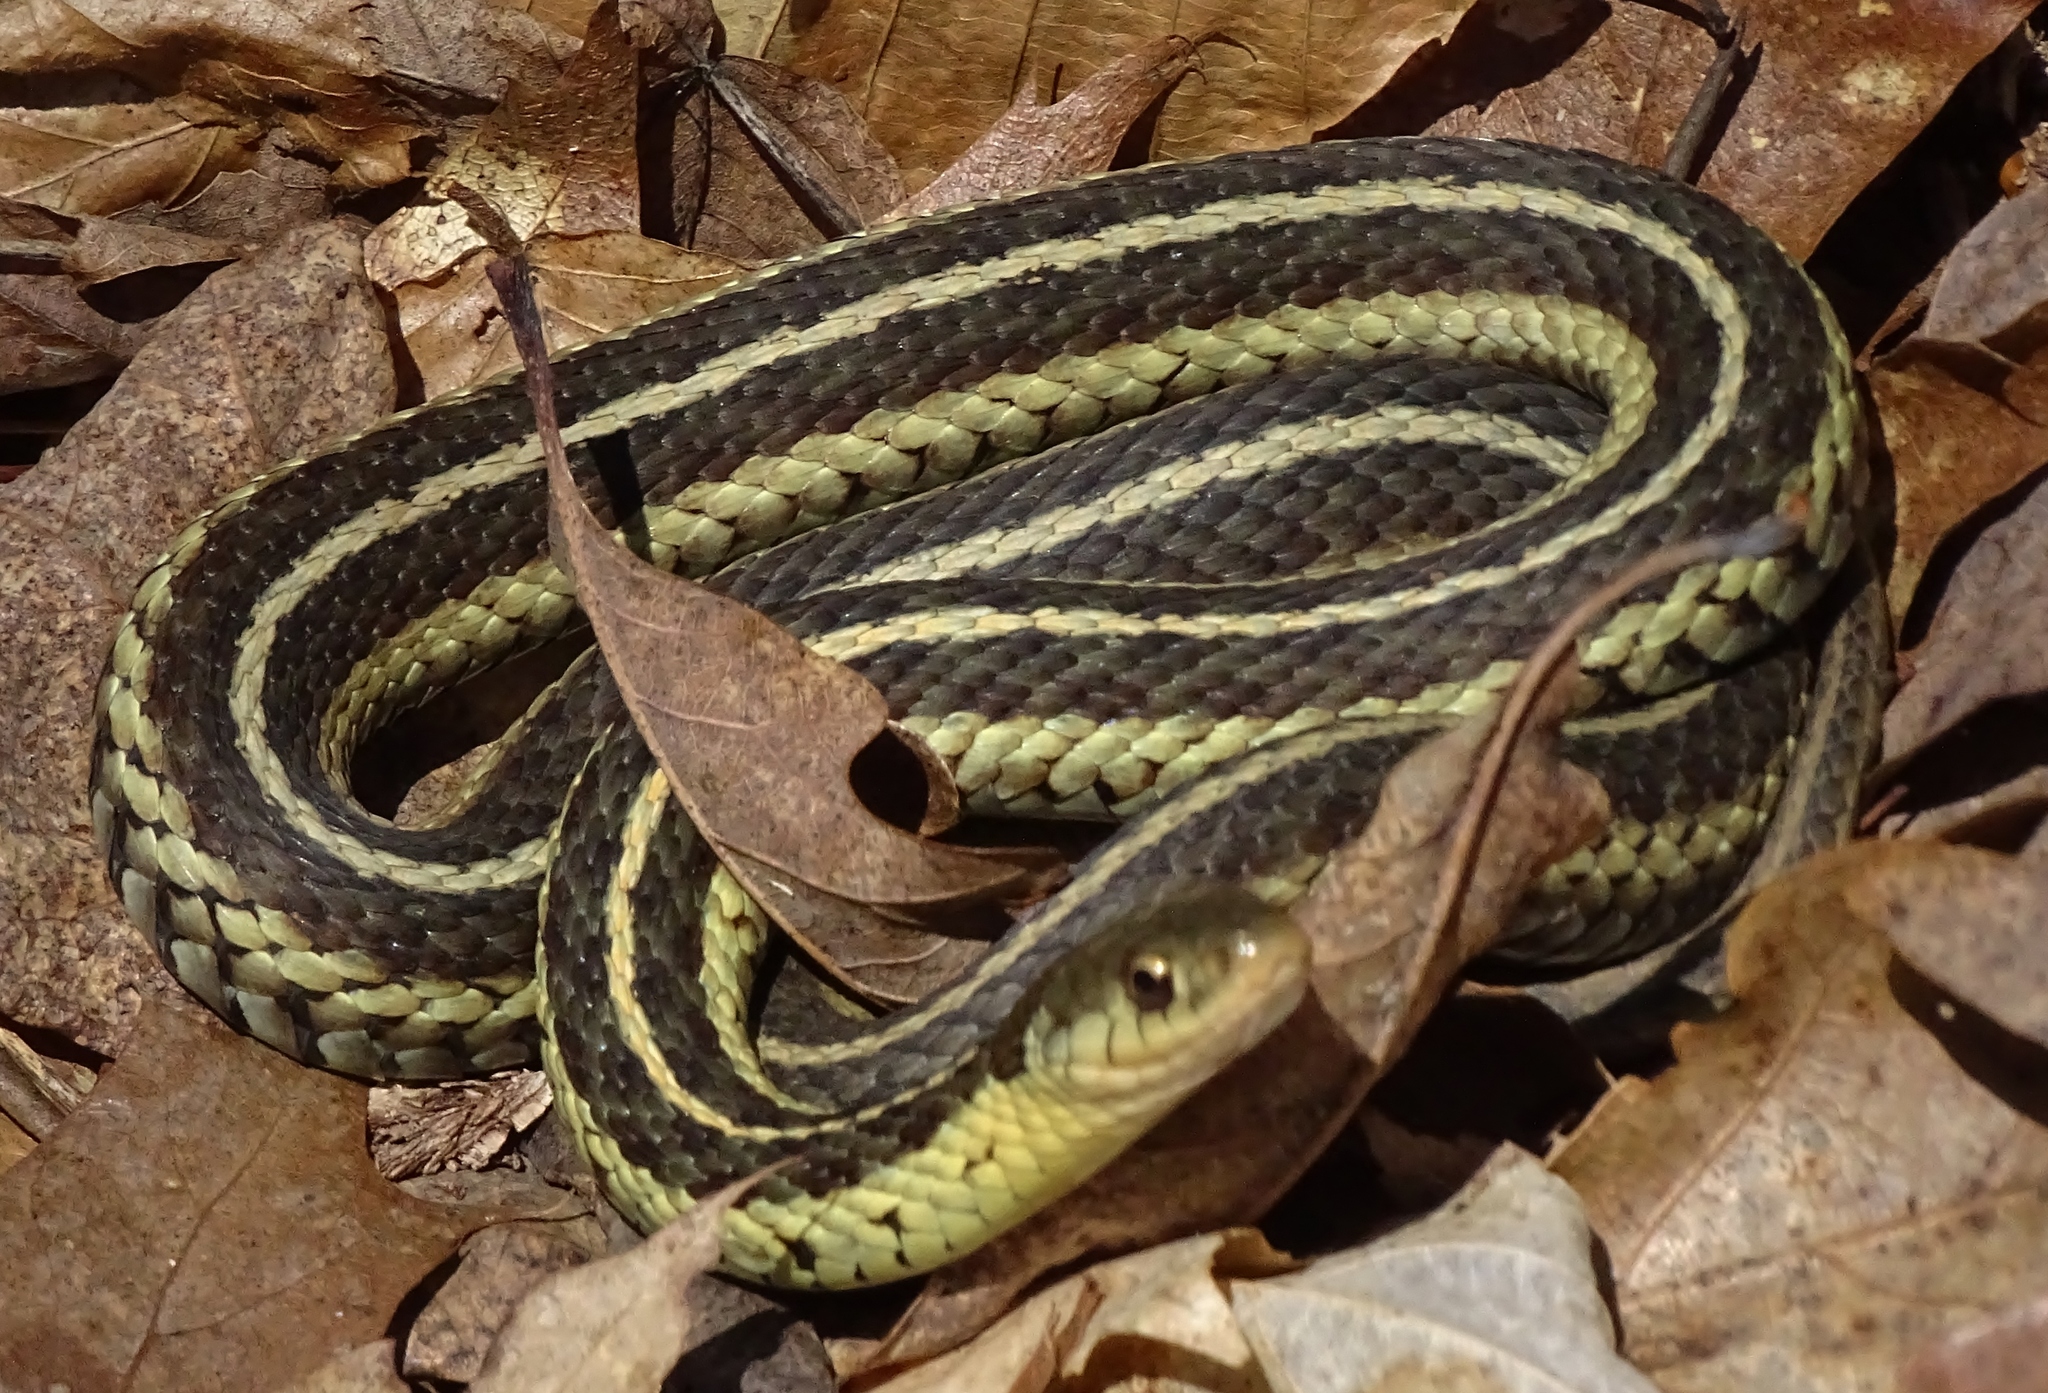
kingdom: Animalia
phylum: Chordata
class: Squamata
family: Colubridae
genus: Thamnophis
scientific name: Thamnophis sirtalis
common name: Common garter snake
